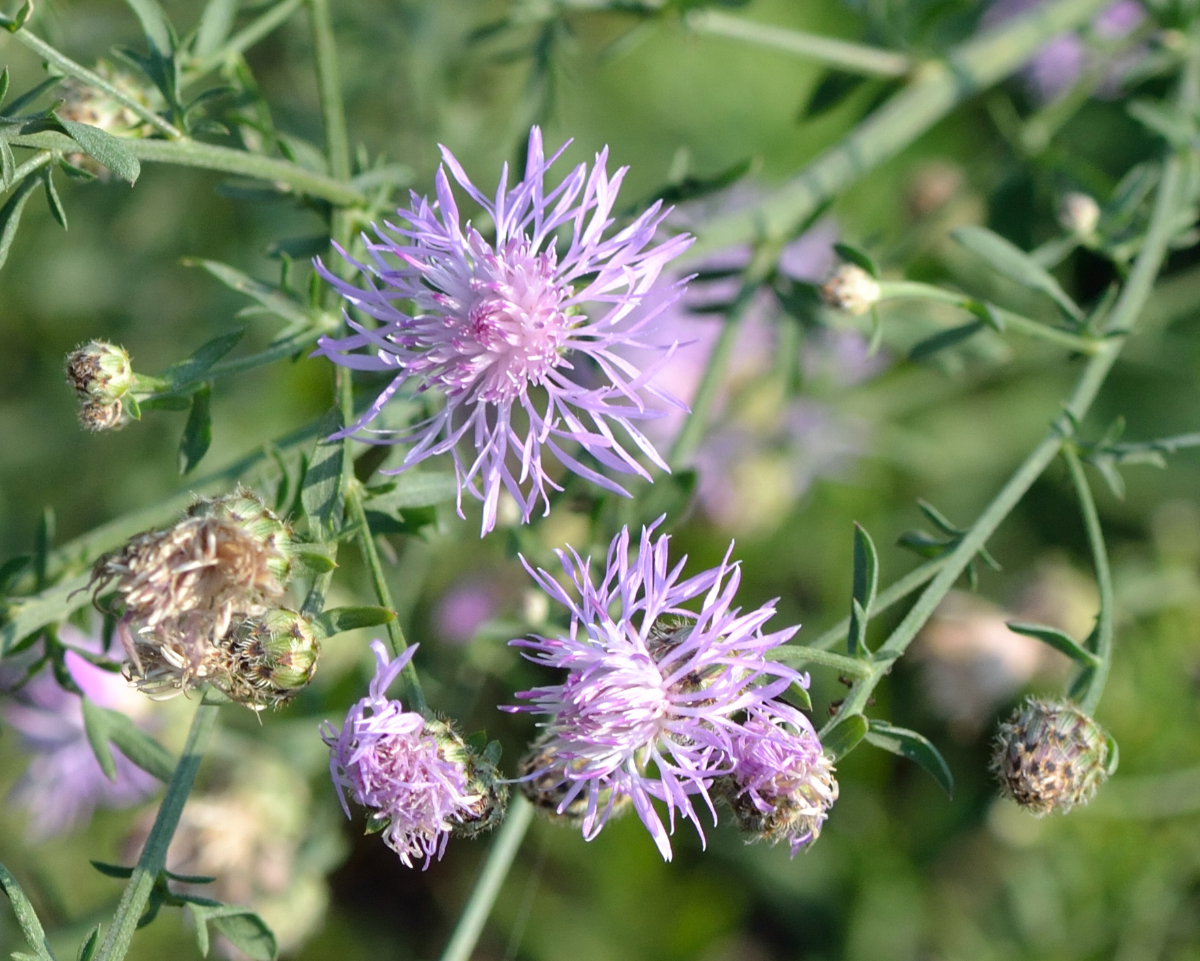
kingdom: Plantae
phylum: Tracheophyta
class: Magnoliopsida
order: Asterales
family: Asteraceae
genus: Centaurea
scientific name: Centaurea stoebe
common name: Spotted knapweed
